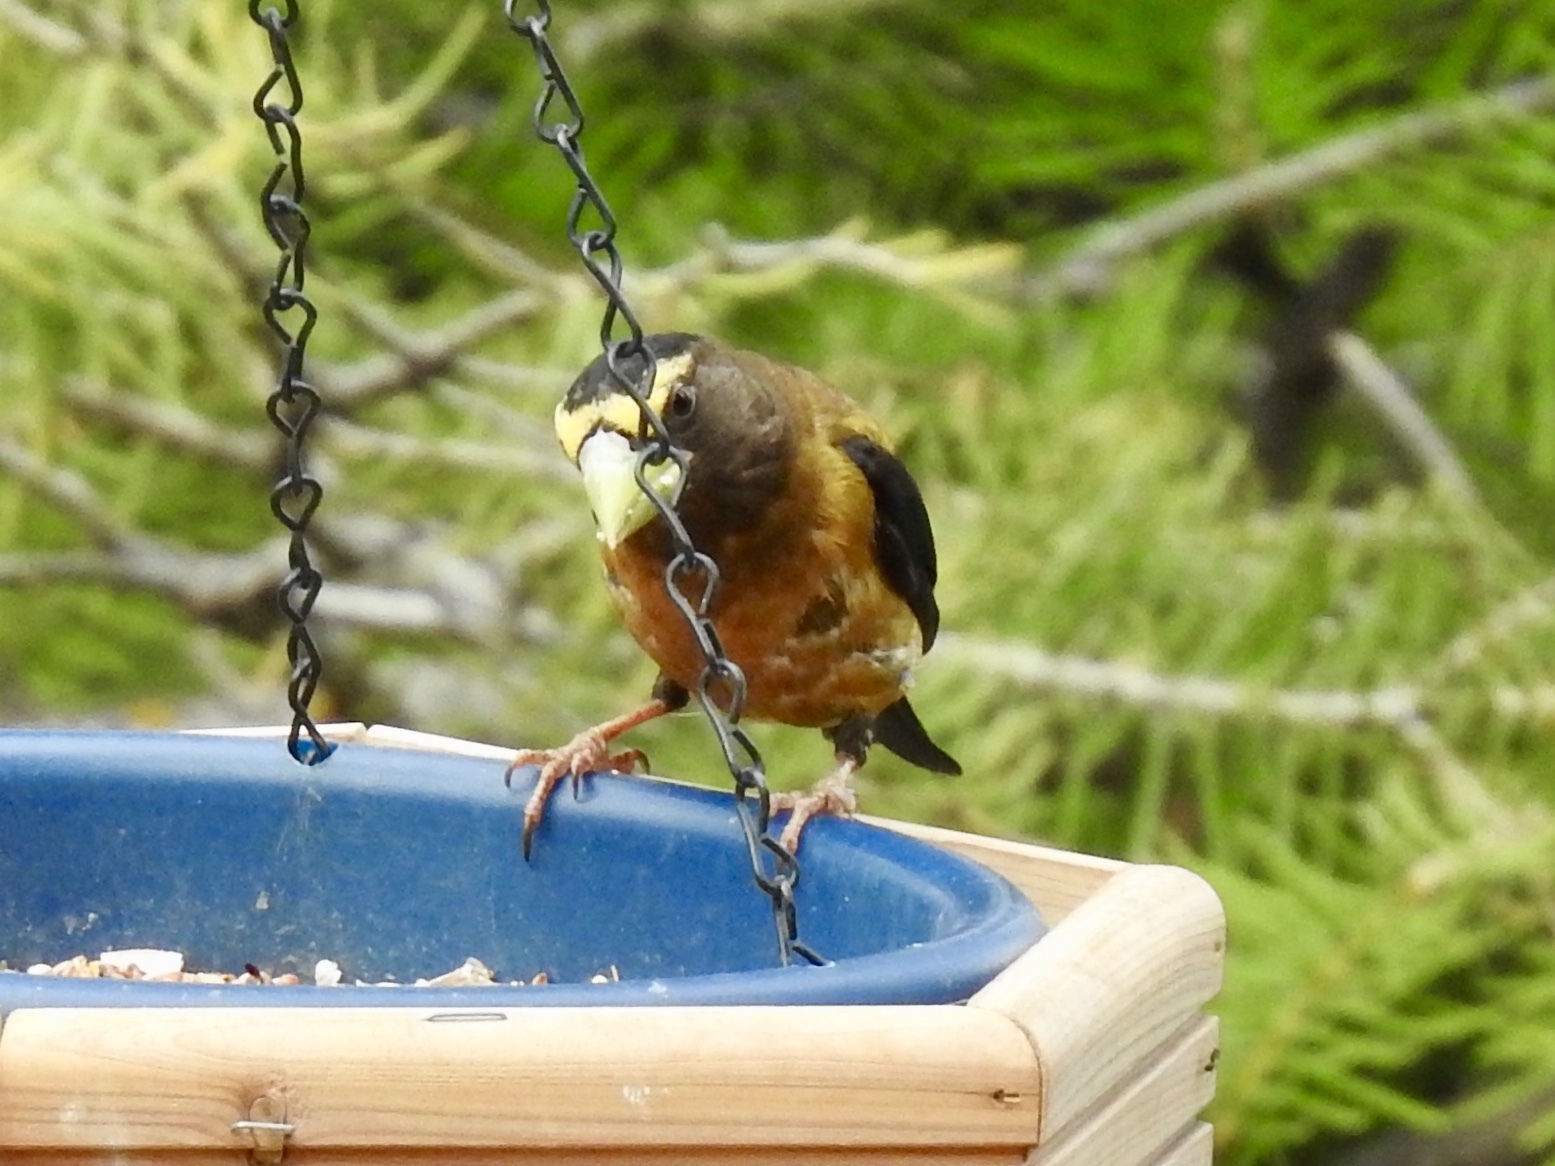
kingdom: Animalia
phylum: Chordata
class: Aves
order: Passeriformes
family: Fringillidae
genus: Hesperiphona
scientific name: Hesperiphona vespertina
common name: Evening grosbeak
